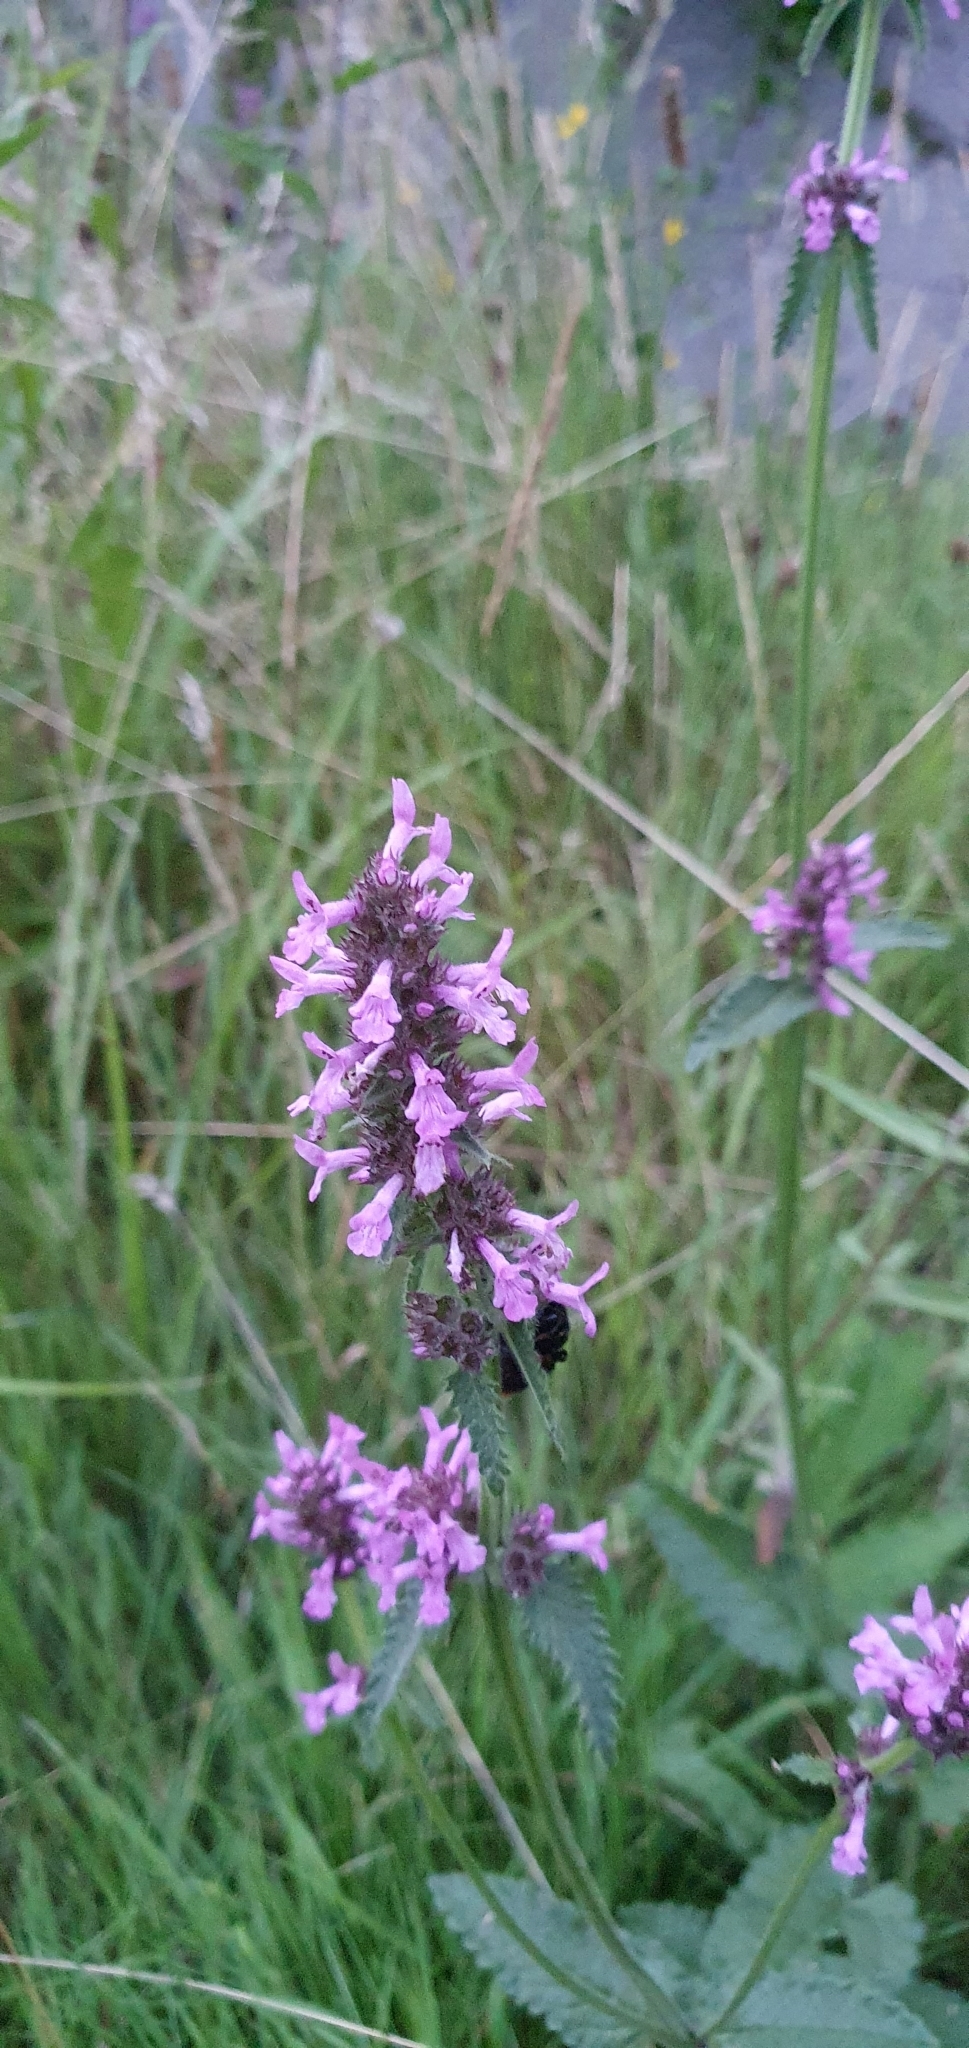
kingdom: Plantae
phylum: Tracheophyta
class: Magnoliopsida
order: Lamiales
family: Lamiaceae
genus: Stachys
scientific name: Stachys palustris
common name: Marsh woundwort
